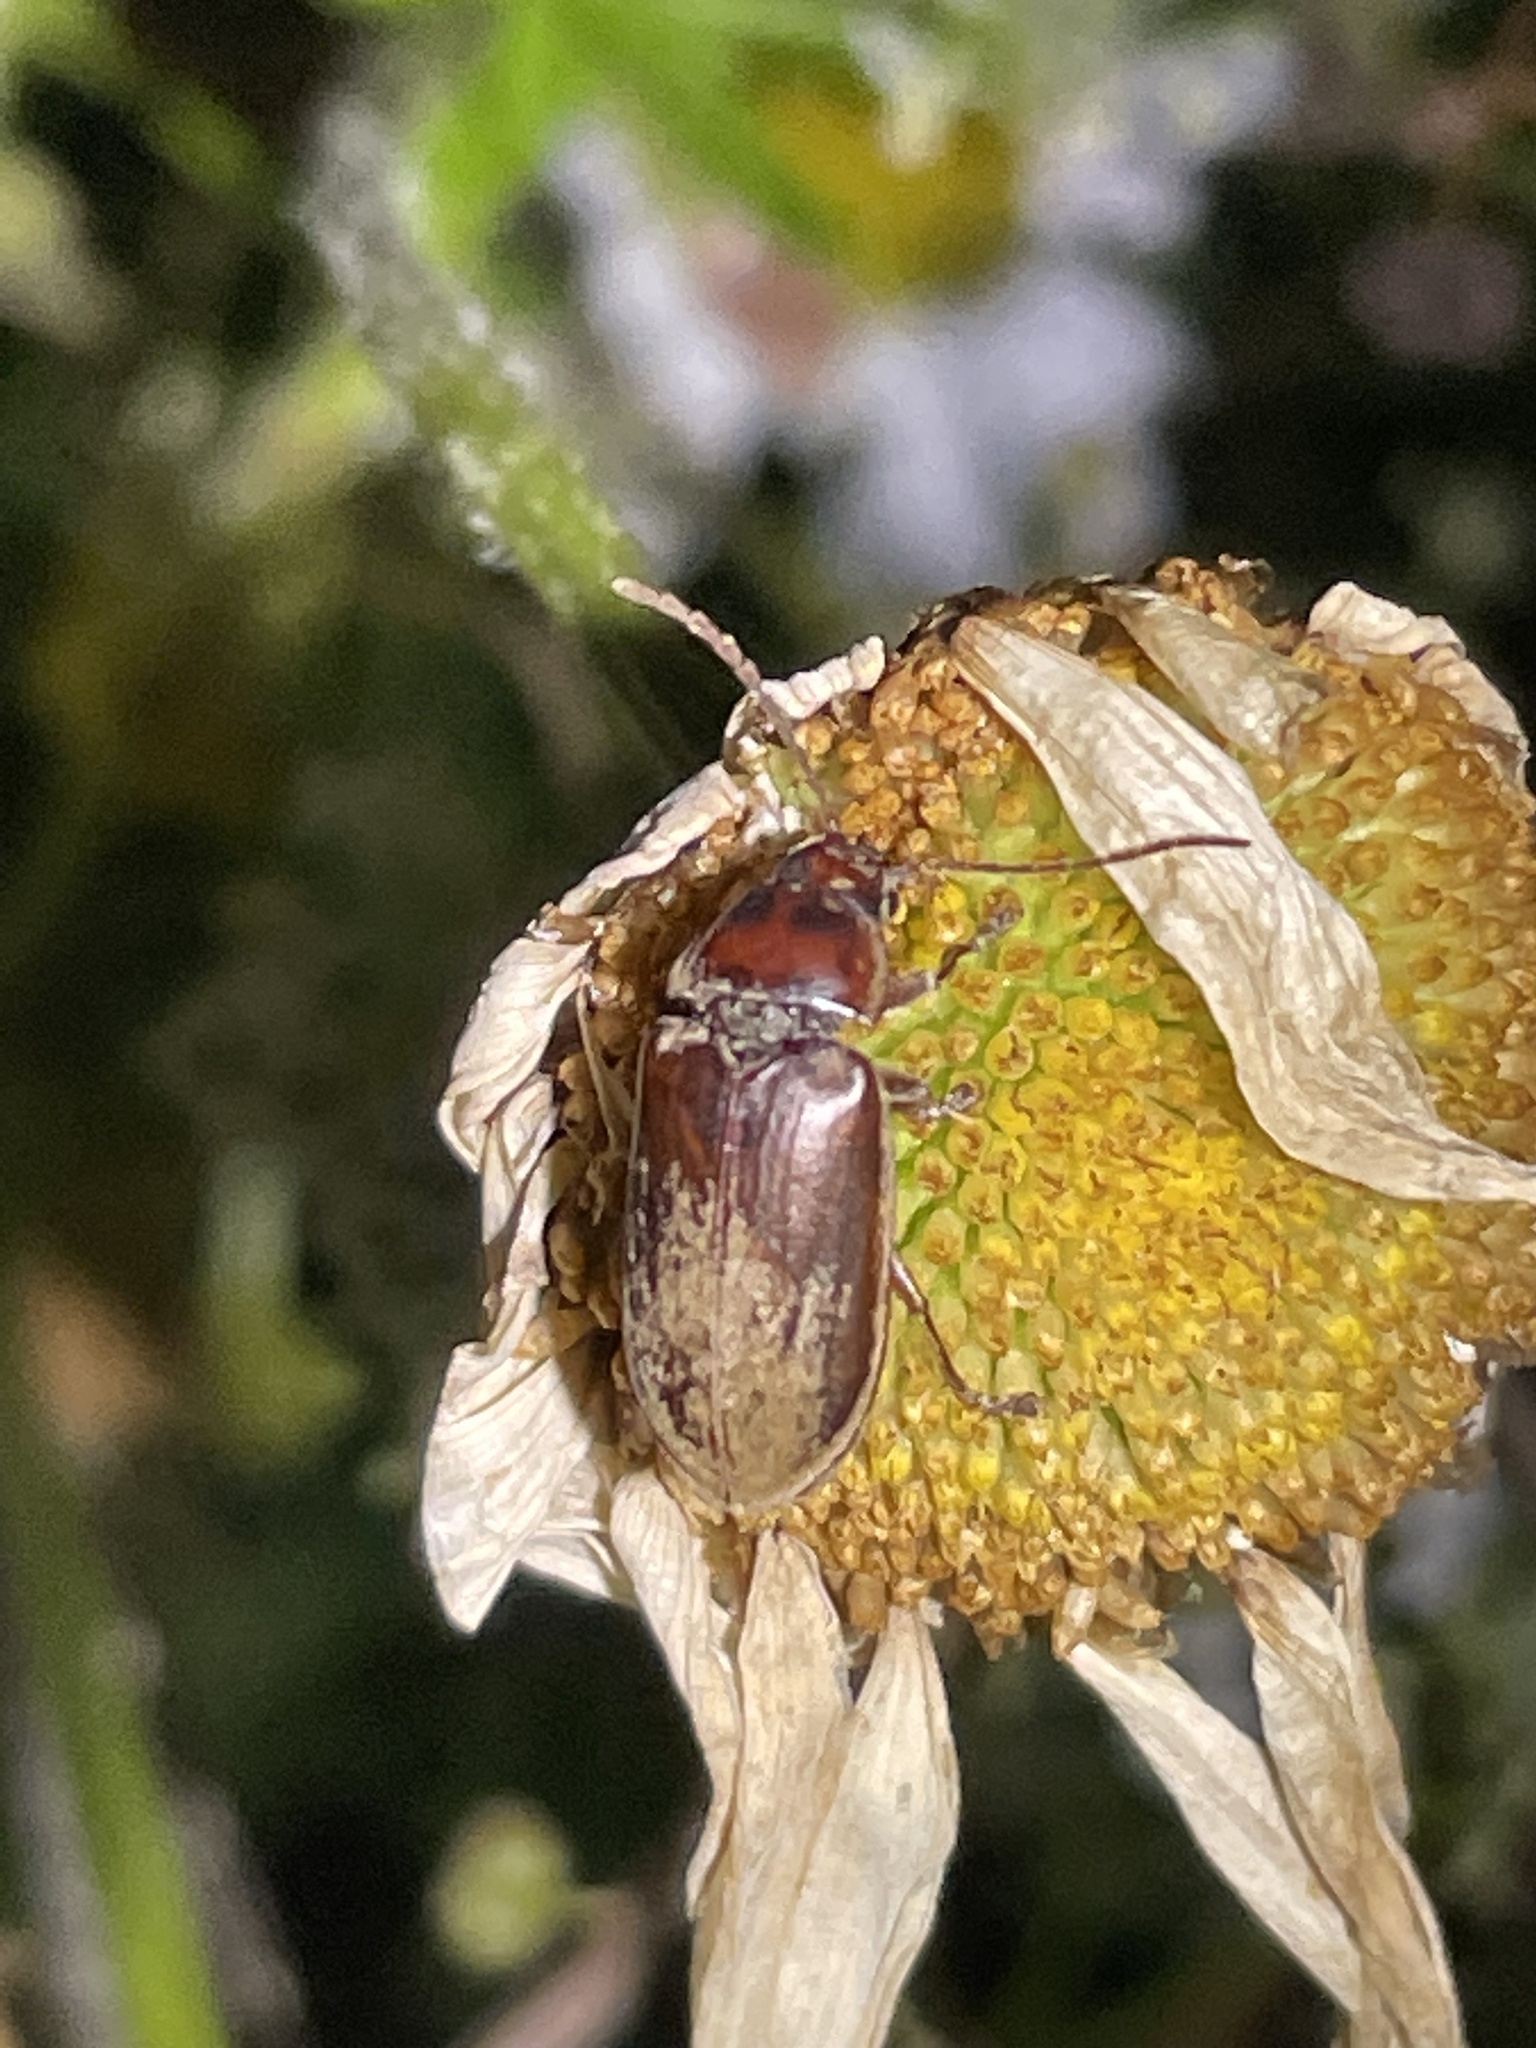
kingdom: Animalia
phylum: Arthropoda
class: Insecta
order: Coleoptera
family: Dascillidae
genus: Dascillus
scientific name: Dascillus cervinus
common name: Orchid beetle
